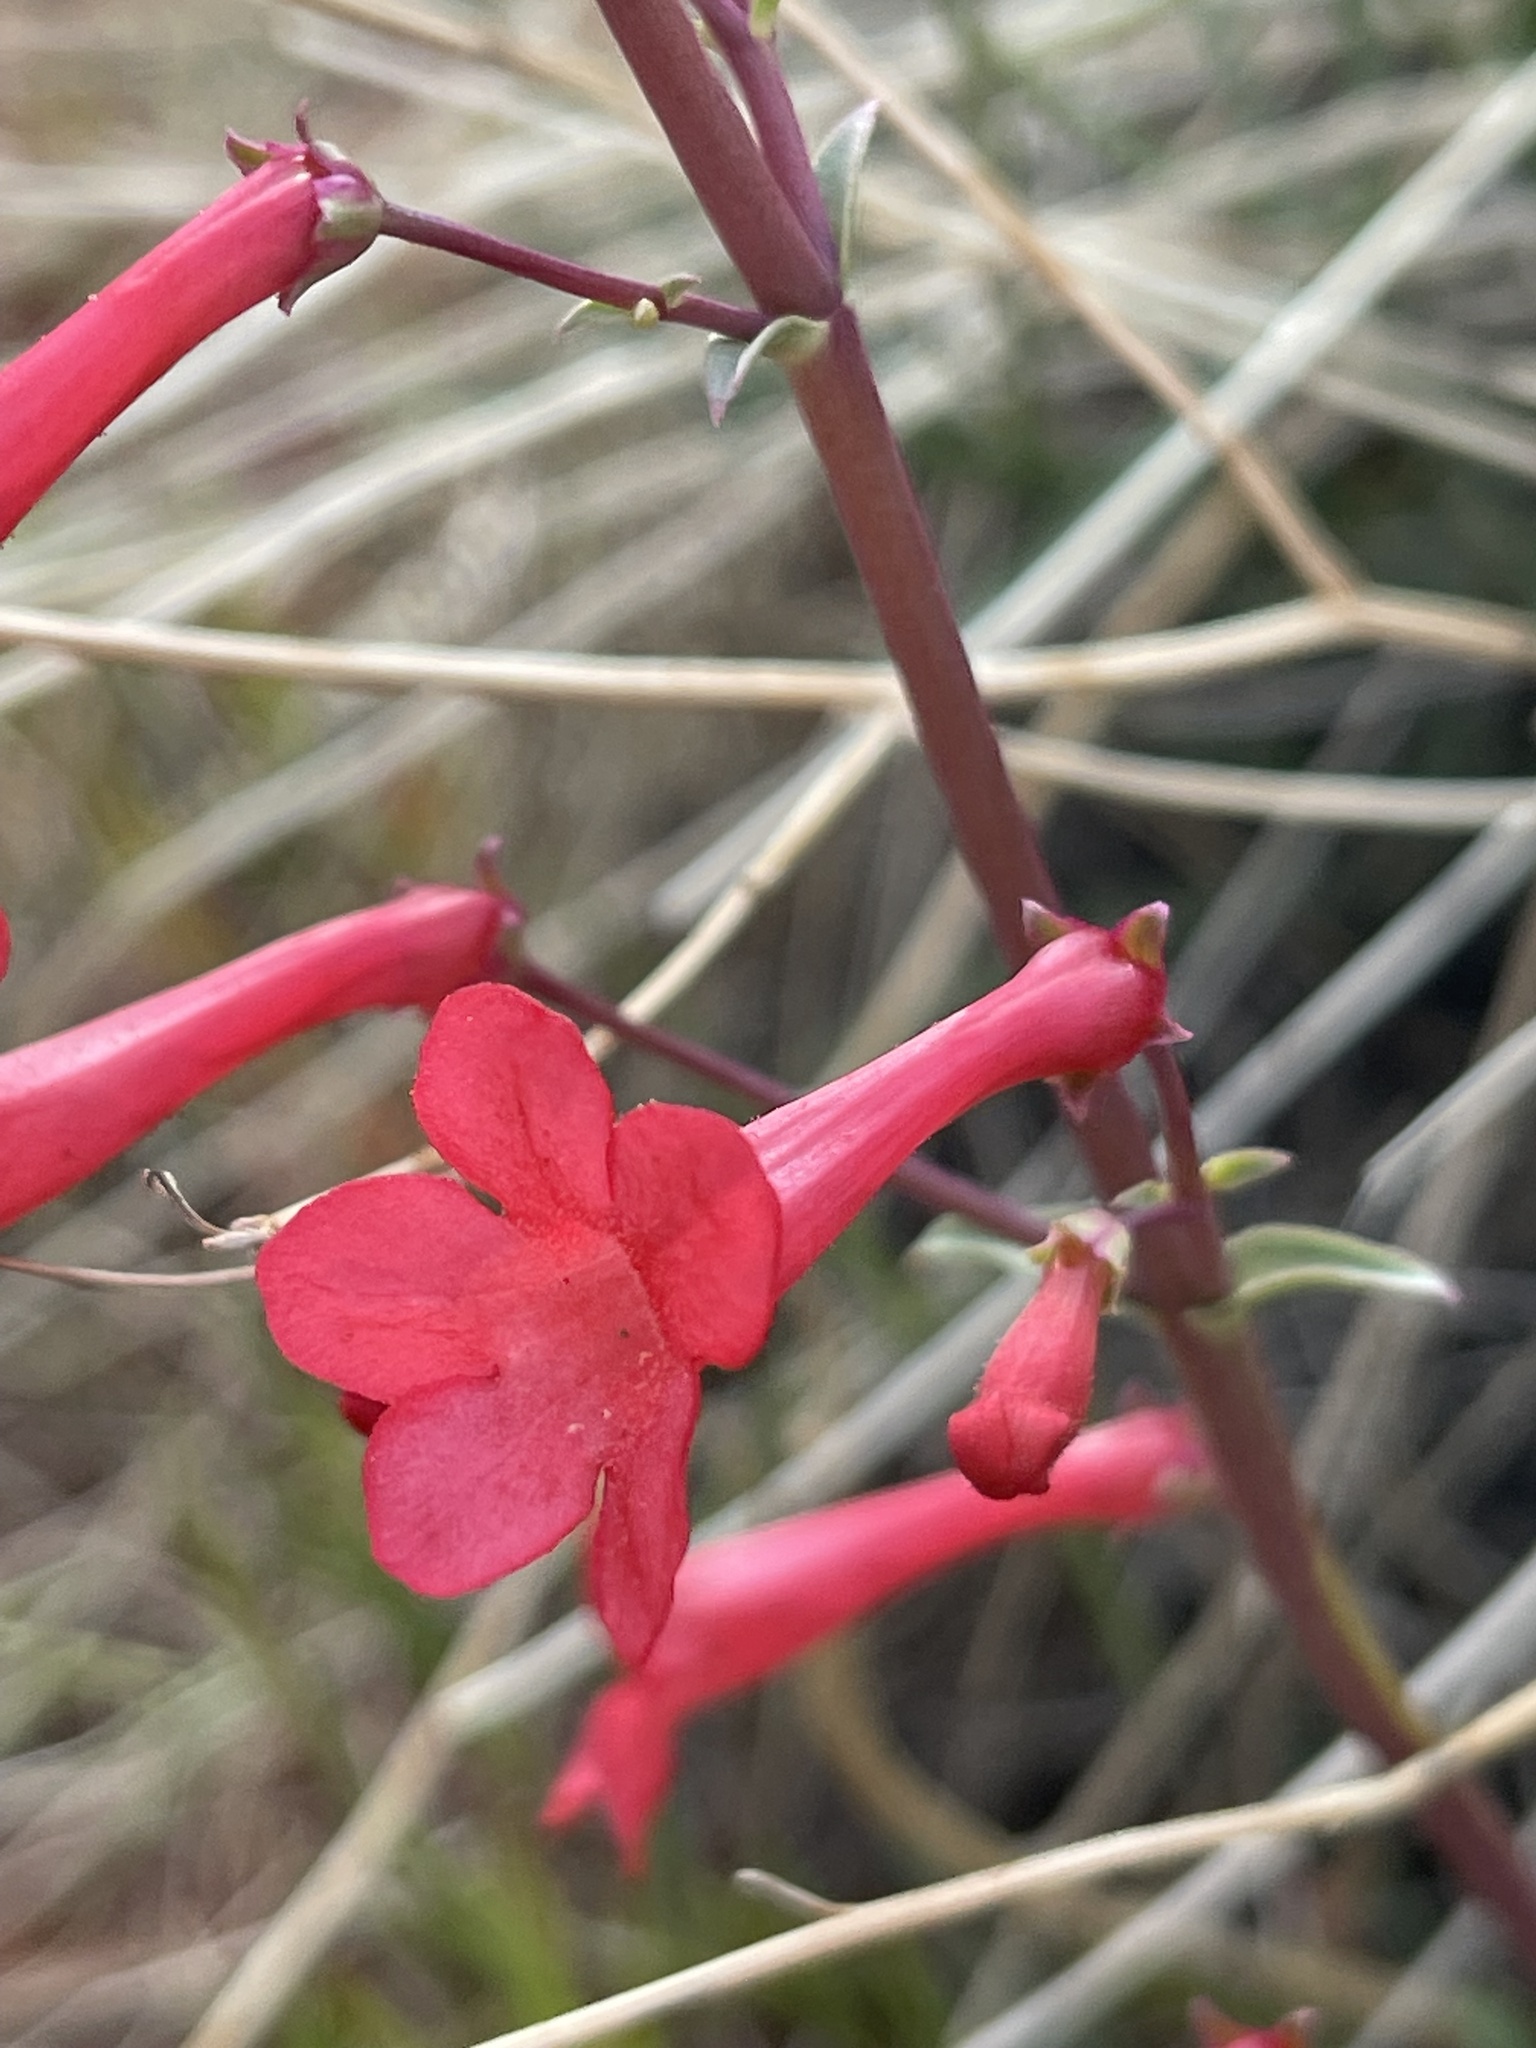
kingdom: Plantae
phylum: Tracheophyta
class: Magnoliopsida
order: Lamiales
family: Plantaginaceae
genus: Penstemon
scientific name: Penstemon utahensis
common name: Utah penstemon
